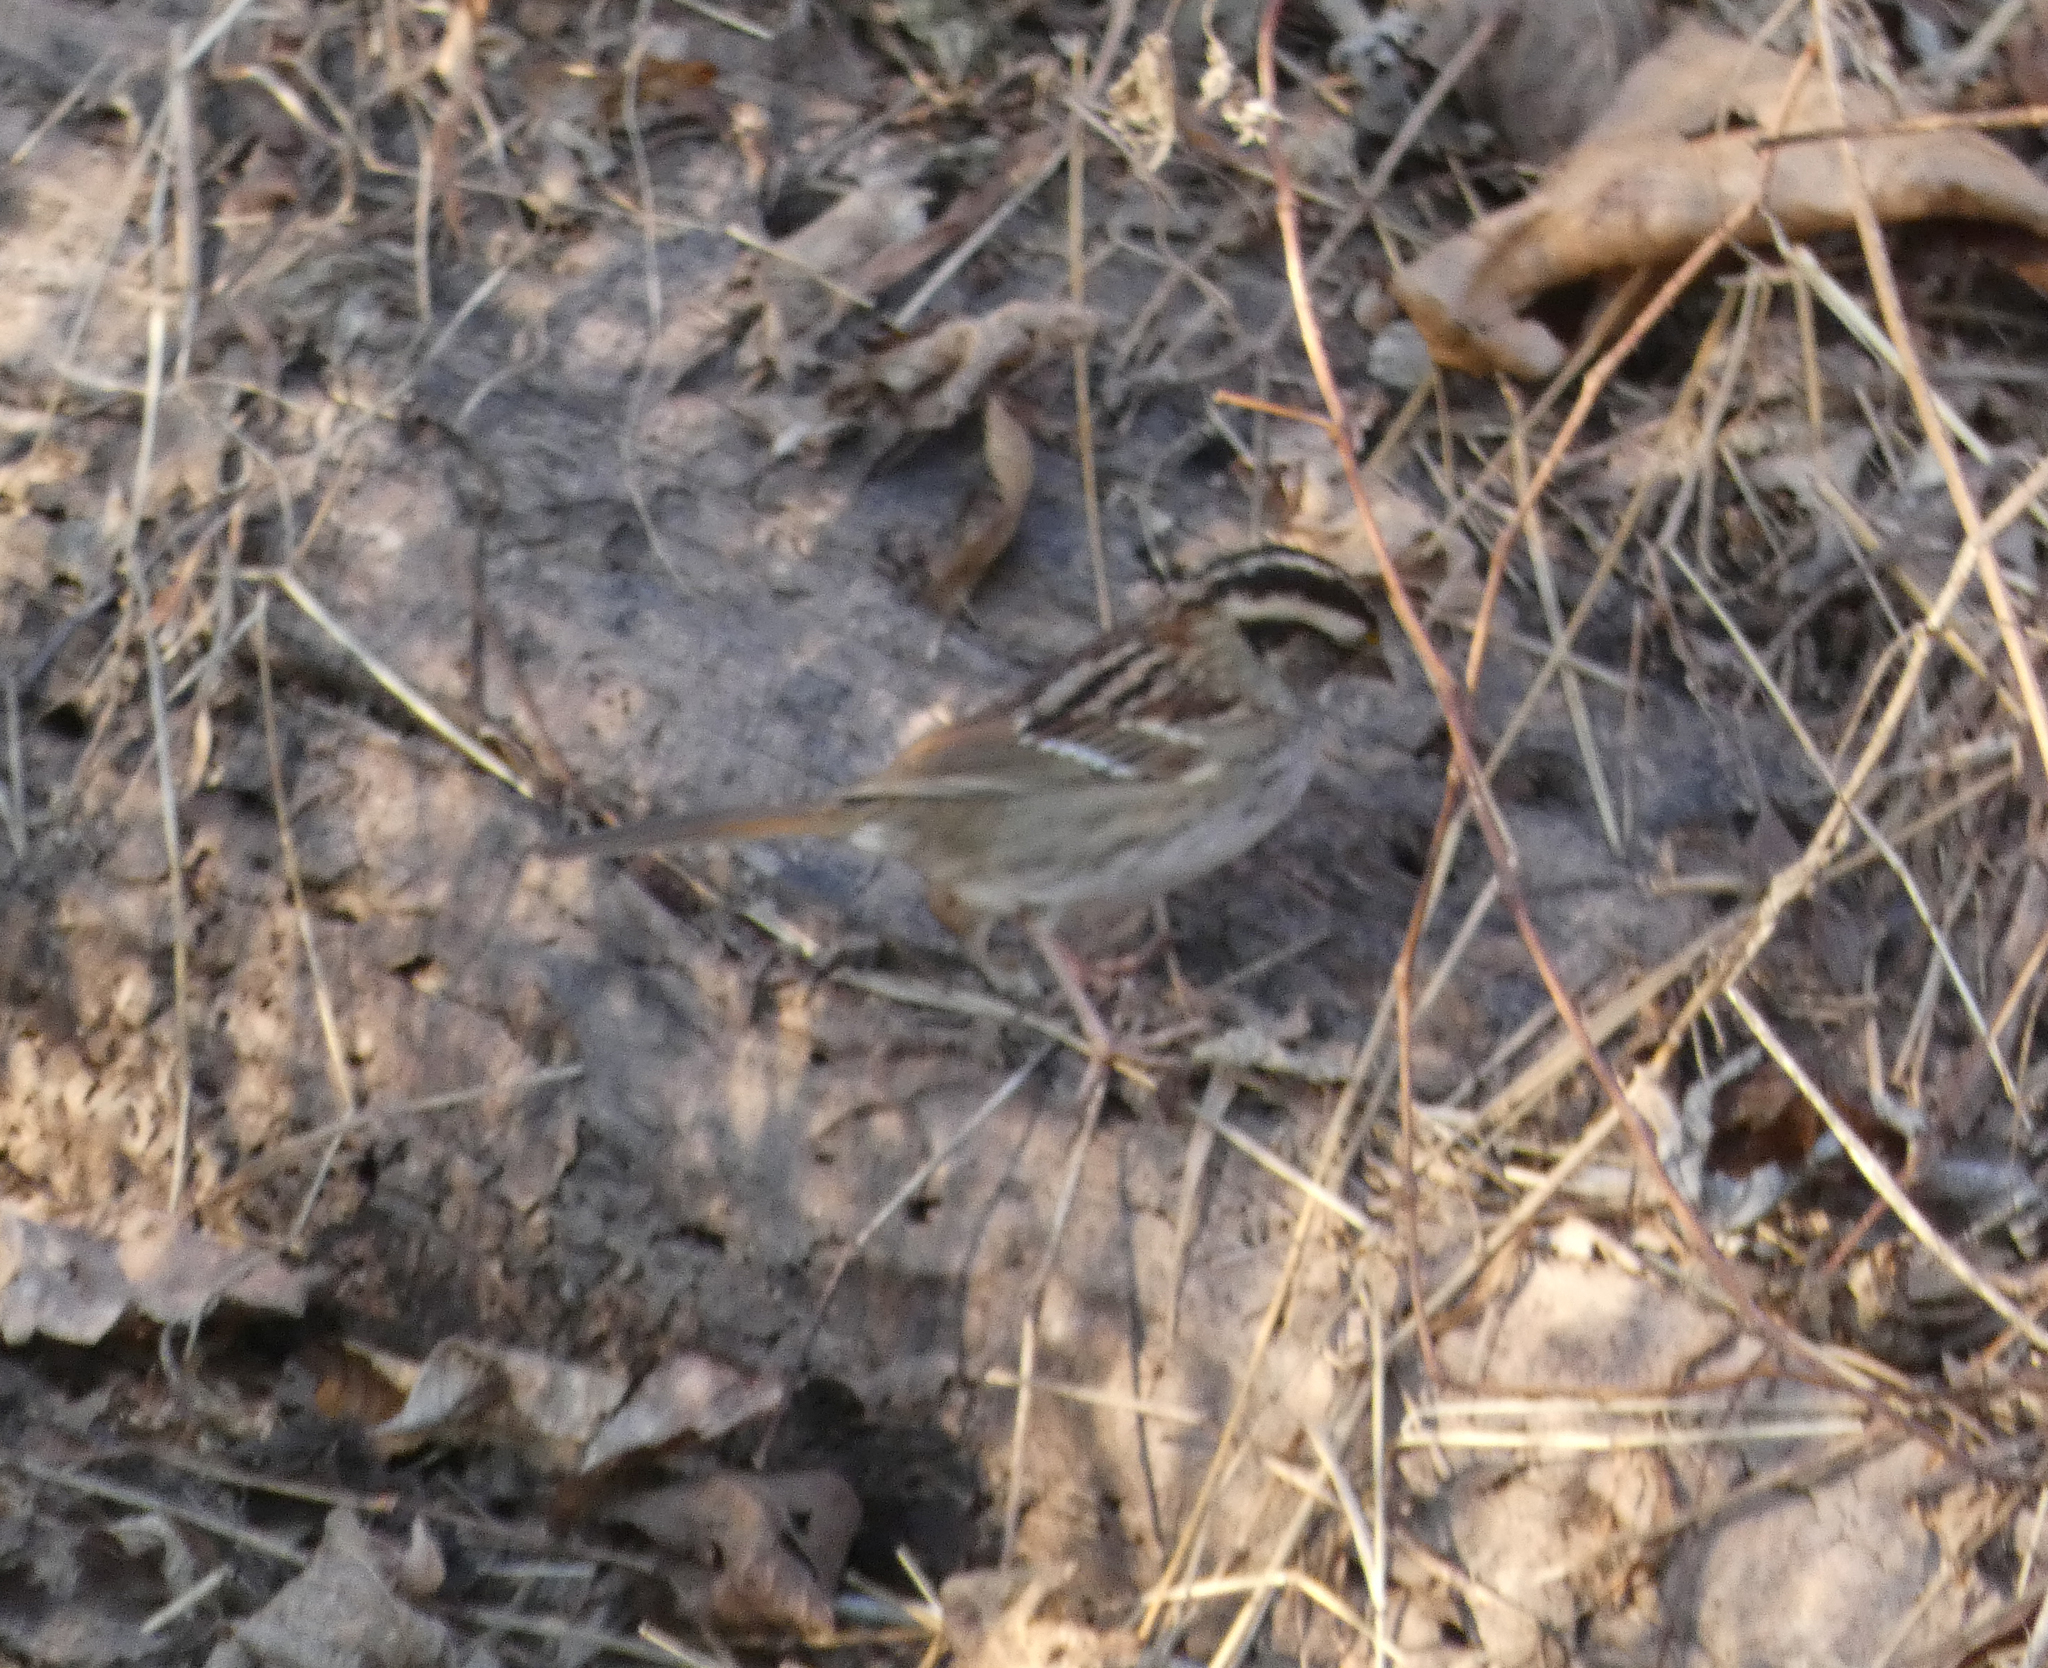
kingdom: Animalia
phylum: Chordata
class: Aves
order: Passeriformes
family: Passerellidae
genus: Zonotrichia
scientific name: Zonotrichia albicollis
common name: White-throated sparrow
